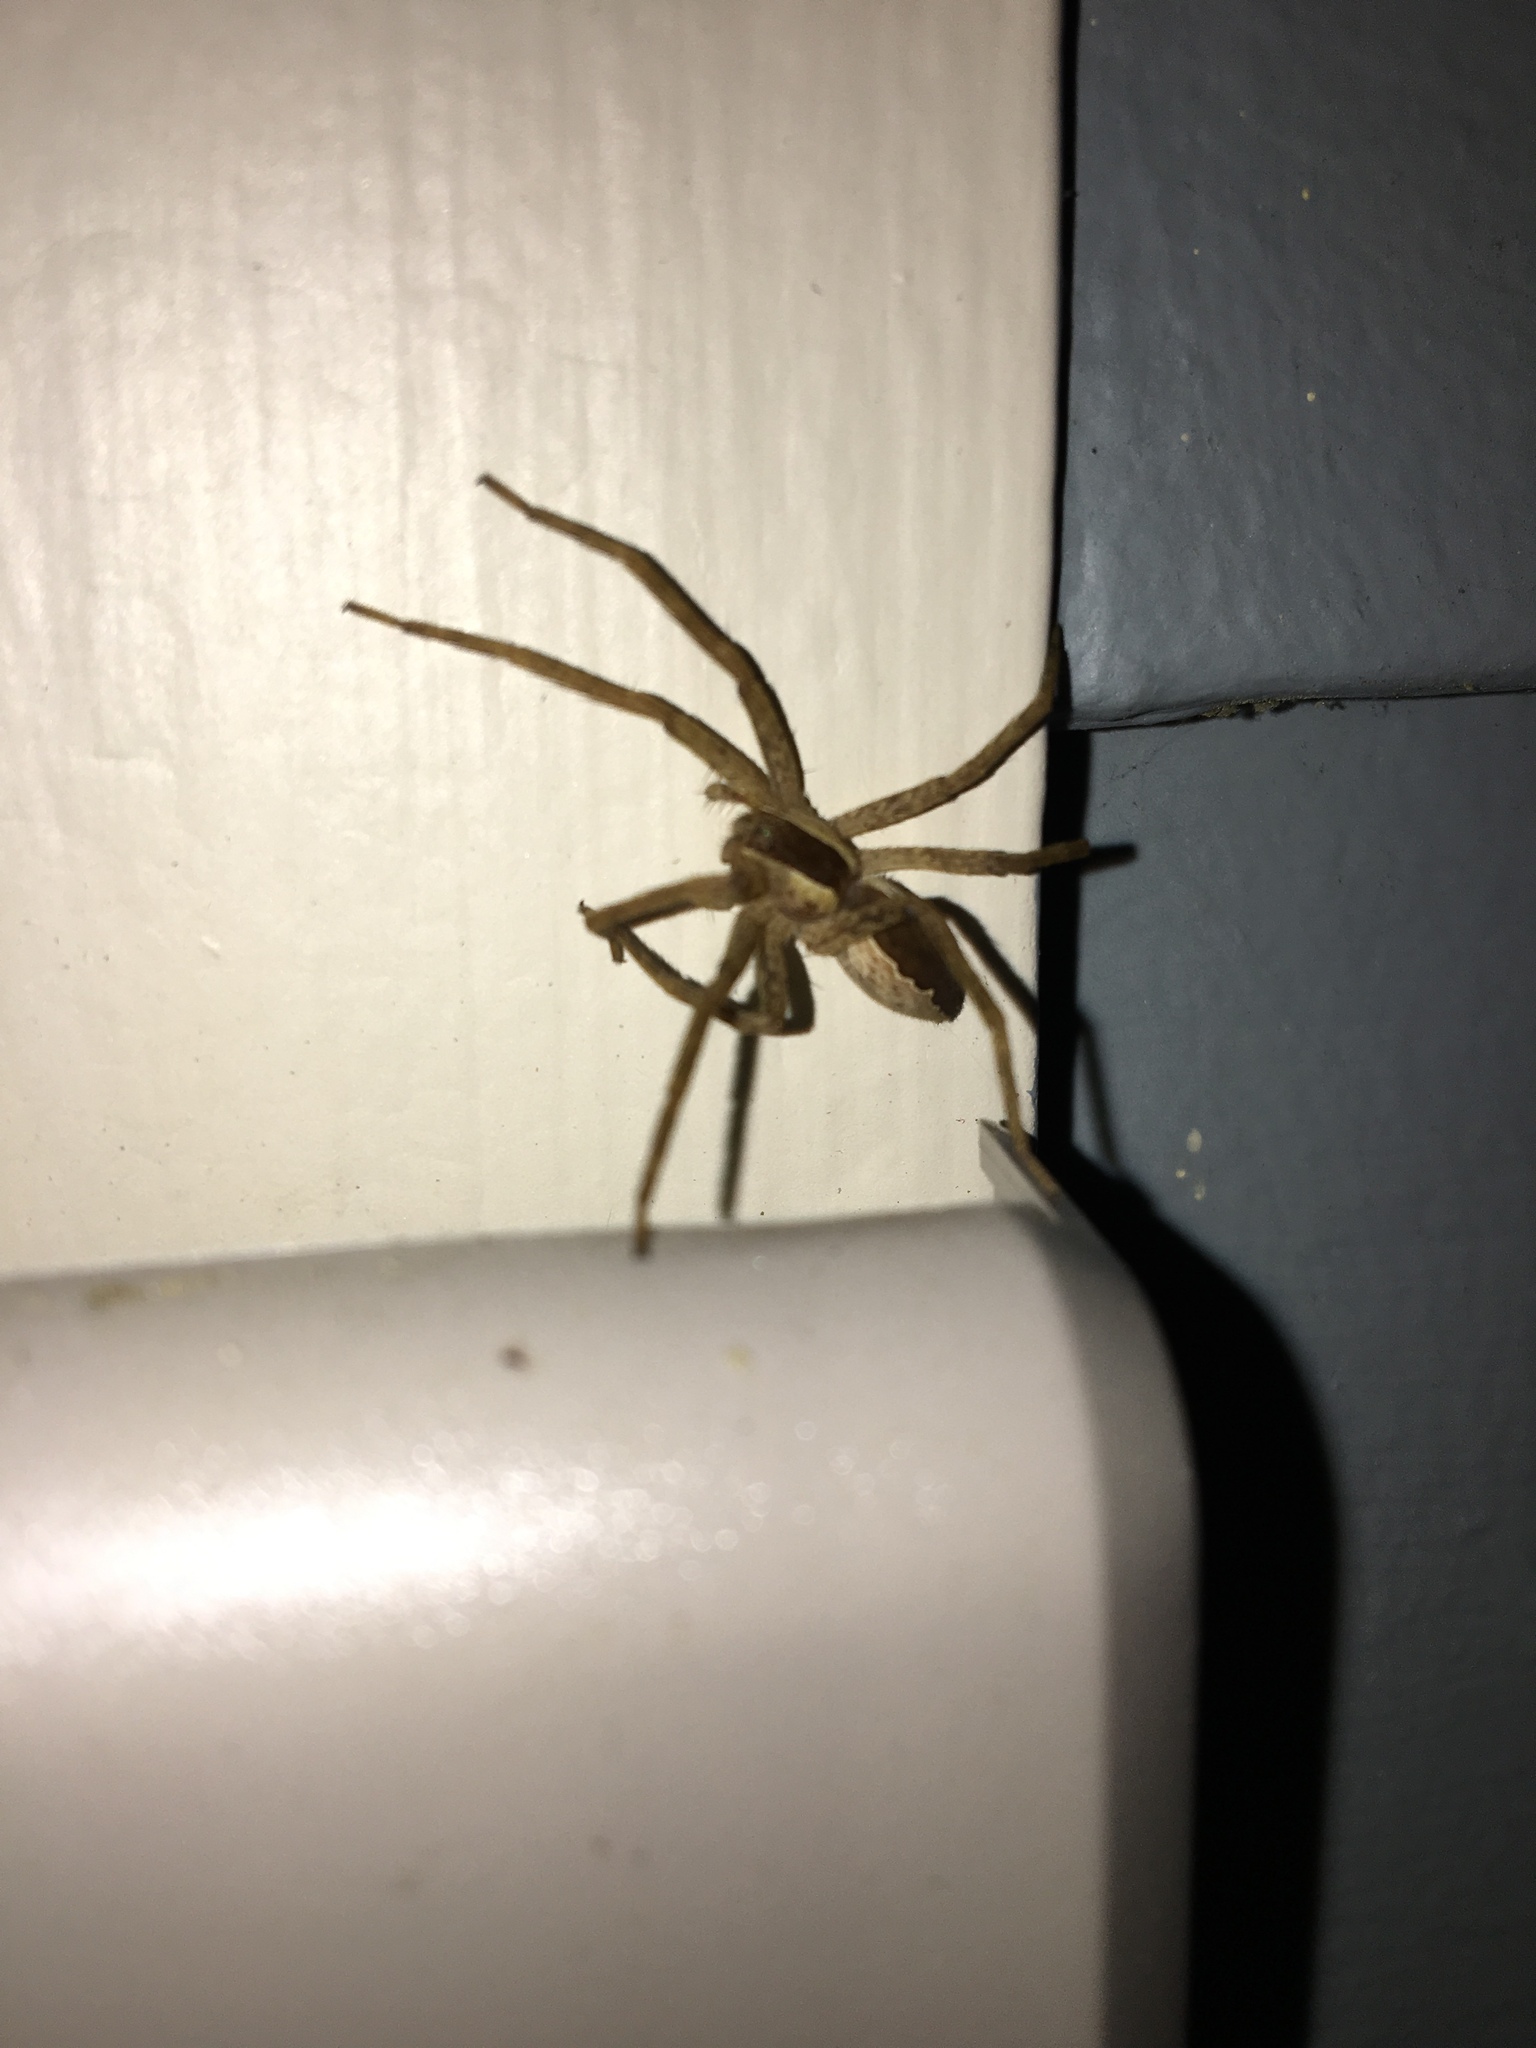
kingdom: Animalia
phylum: Arthropoda
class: Arachnida
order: Araneae
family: Pisauridae
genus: Pisaurina
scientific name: Pisaurina mira
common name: American nursery web spider
